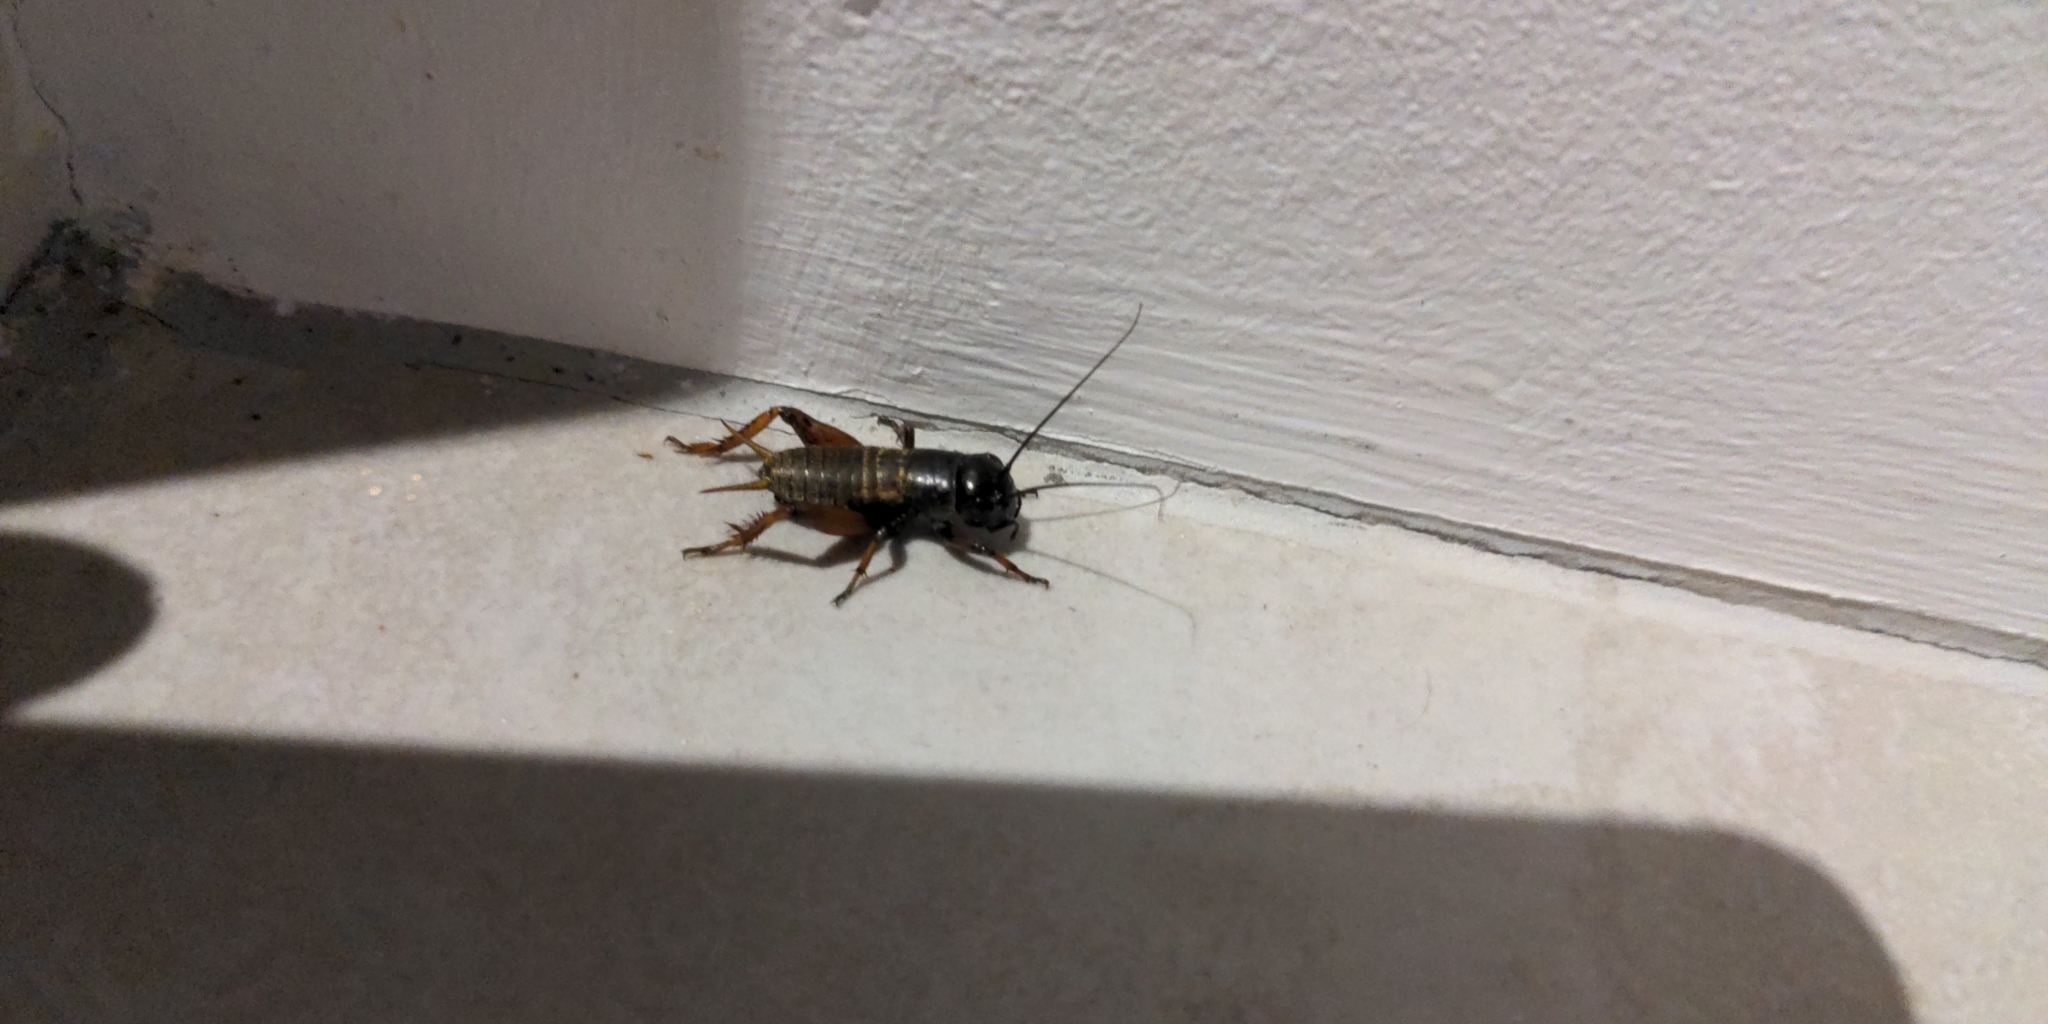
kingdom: Animalia
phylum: Arthropoda
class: Insecta
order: Orthoptera
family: Gryllidae
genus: Gryllus
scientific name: Gryllus campestris
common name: Field cricket
